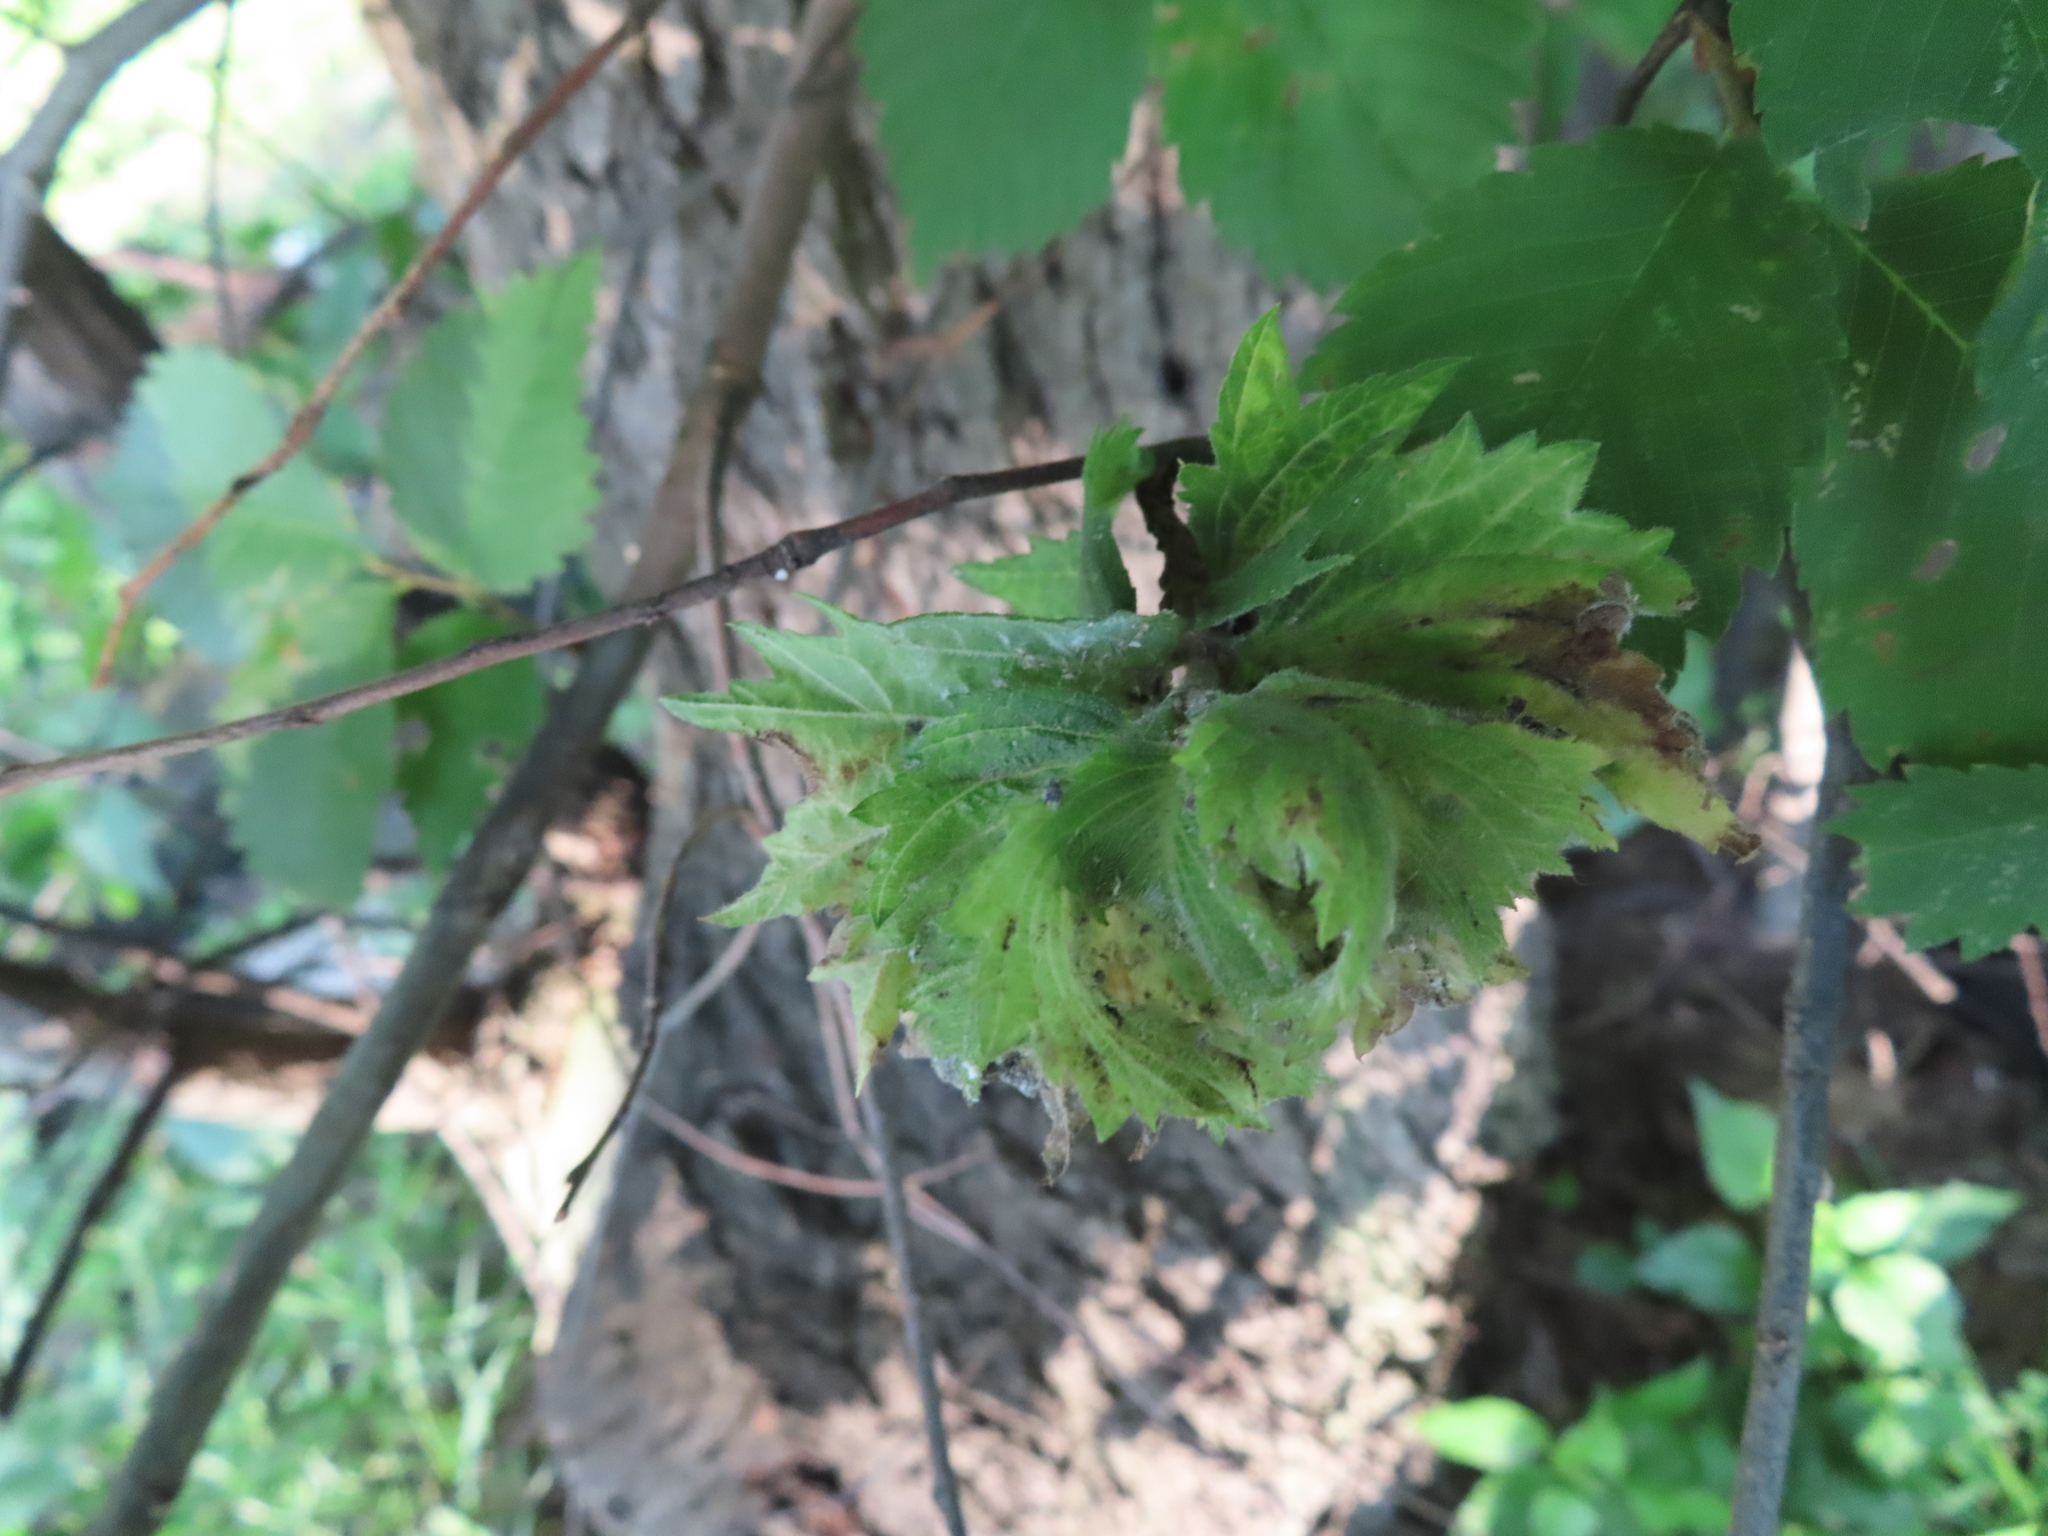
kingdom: Animalia
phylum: Arthropoda
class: Insecta
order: Hemiptera
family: Aphididae
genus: Eriosoma
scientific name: Eriosoma lanigerum
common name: Woolly apple aphid
